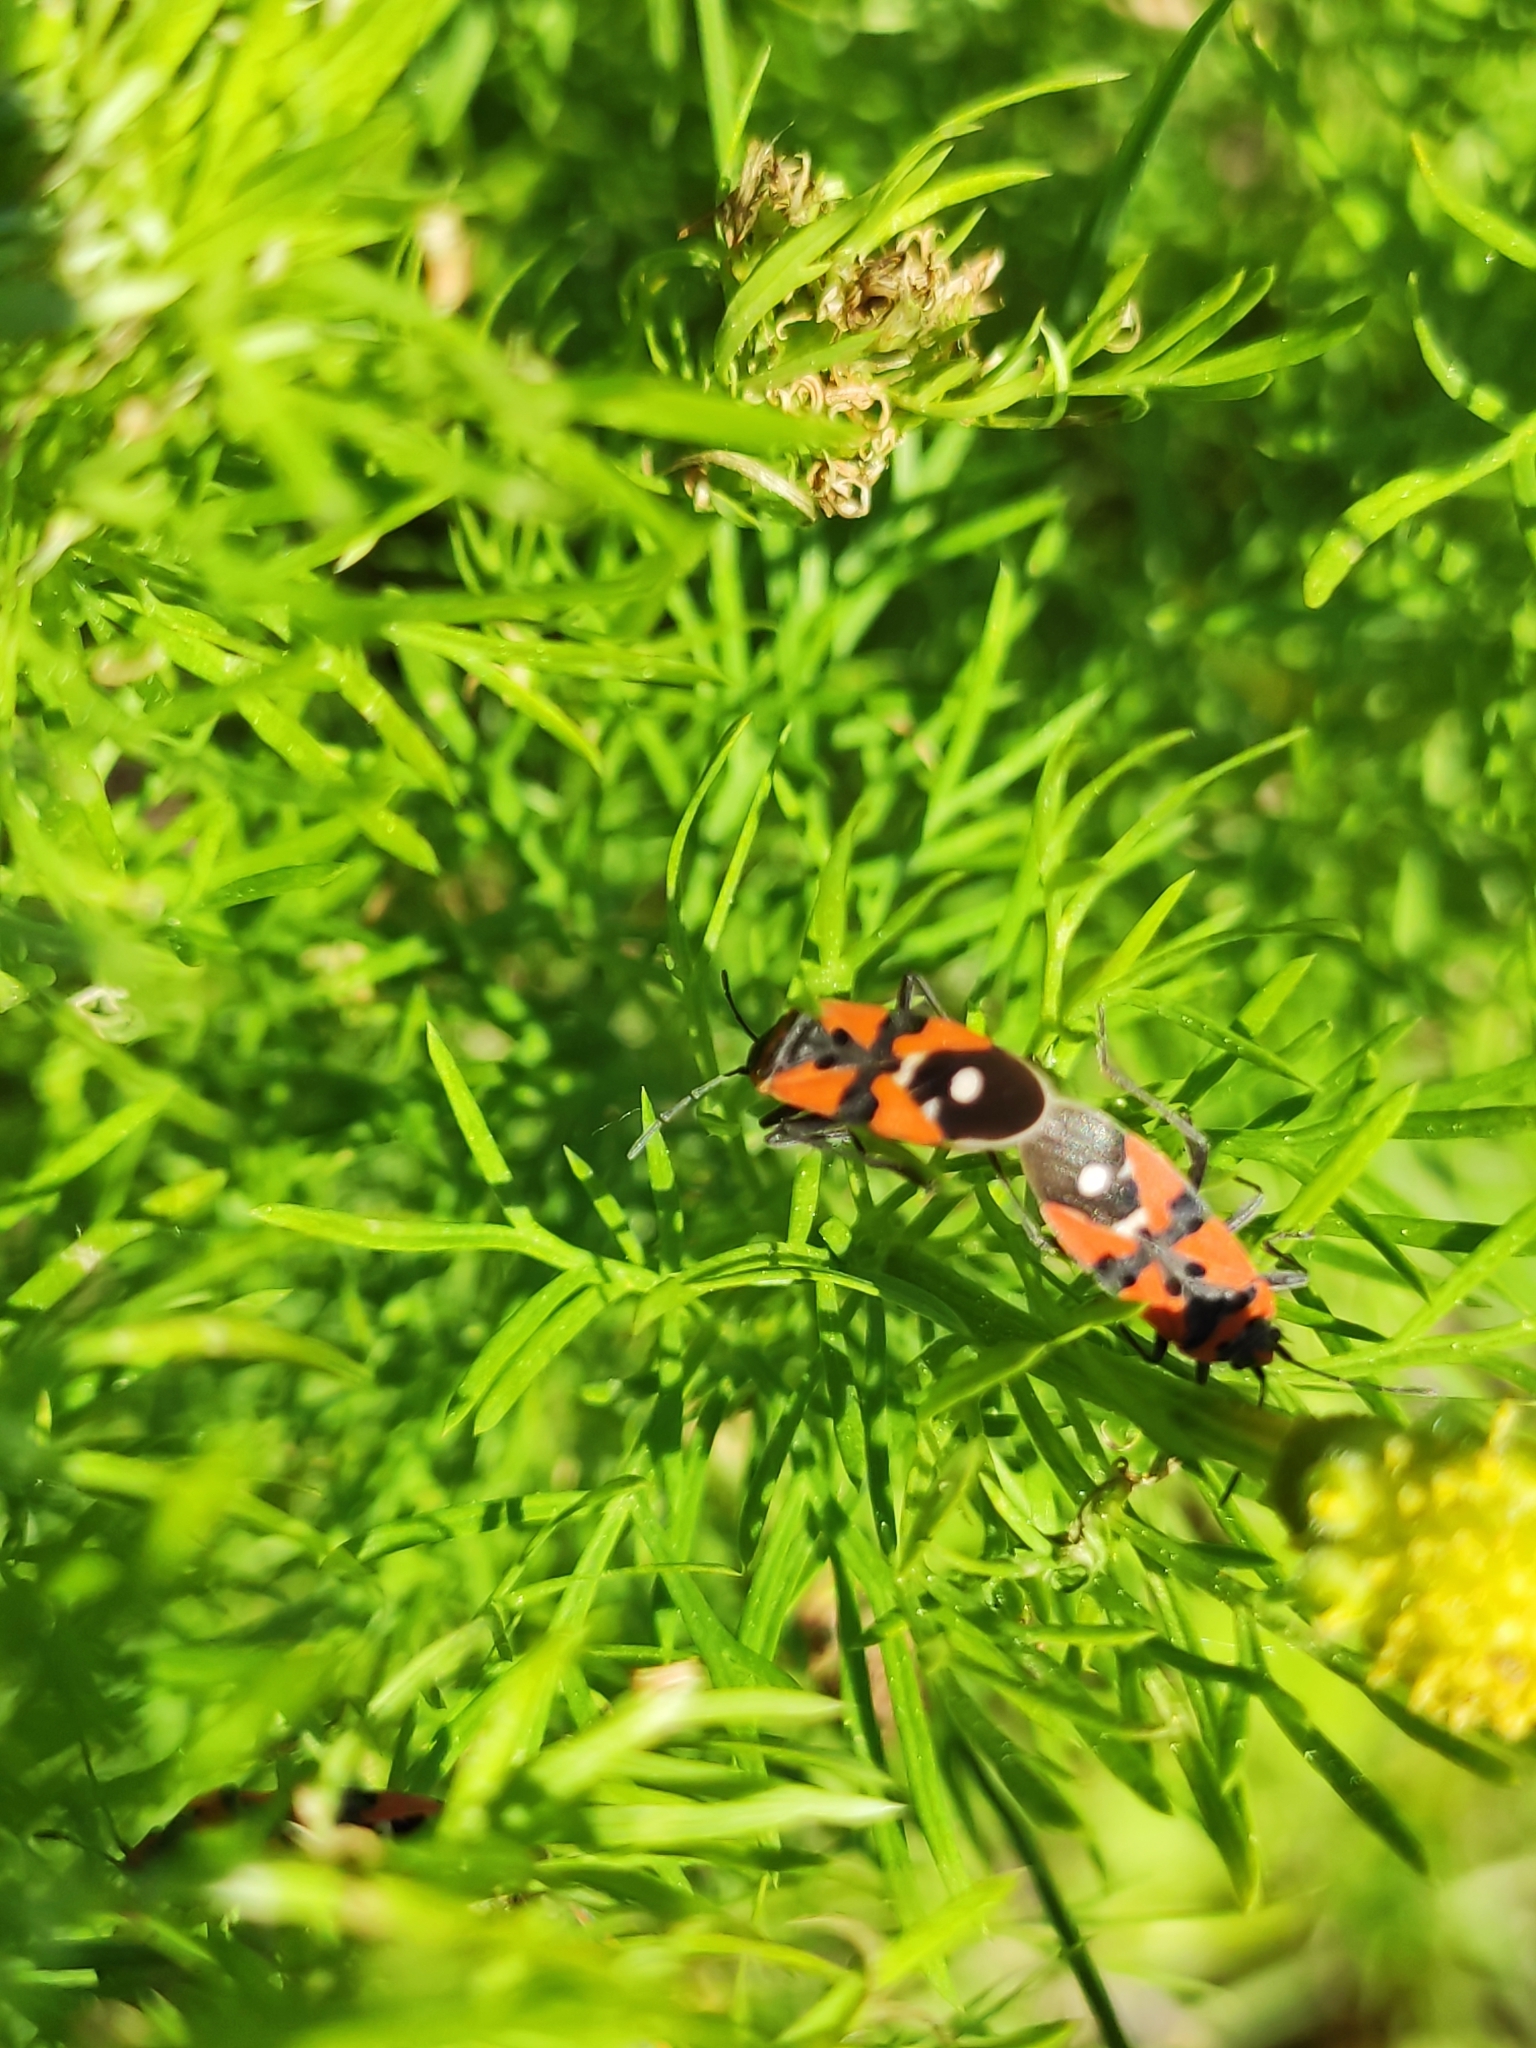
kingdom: Animalia
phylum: Arthropoda
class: Insecta
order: Hemiptera
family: Lygaeidae
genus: Lygaeus
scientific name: Lygaeus equestris
